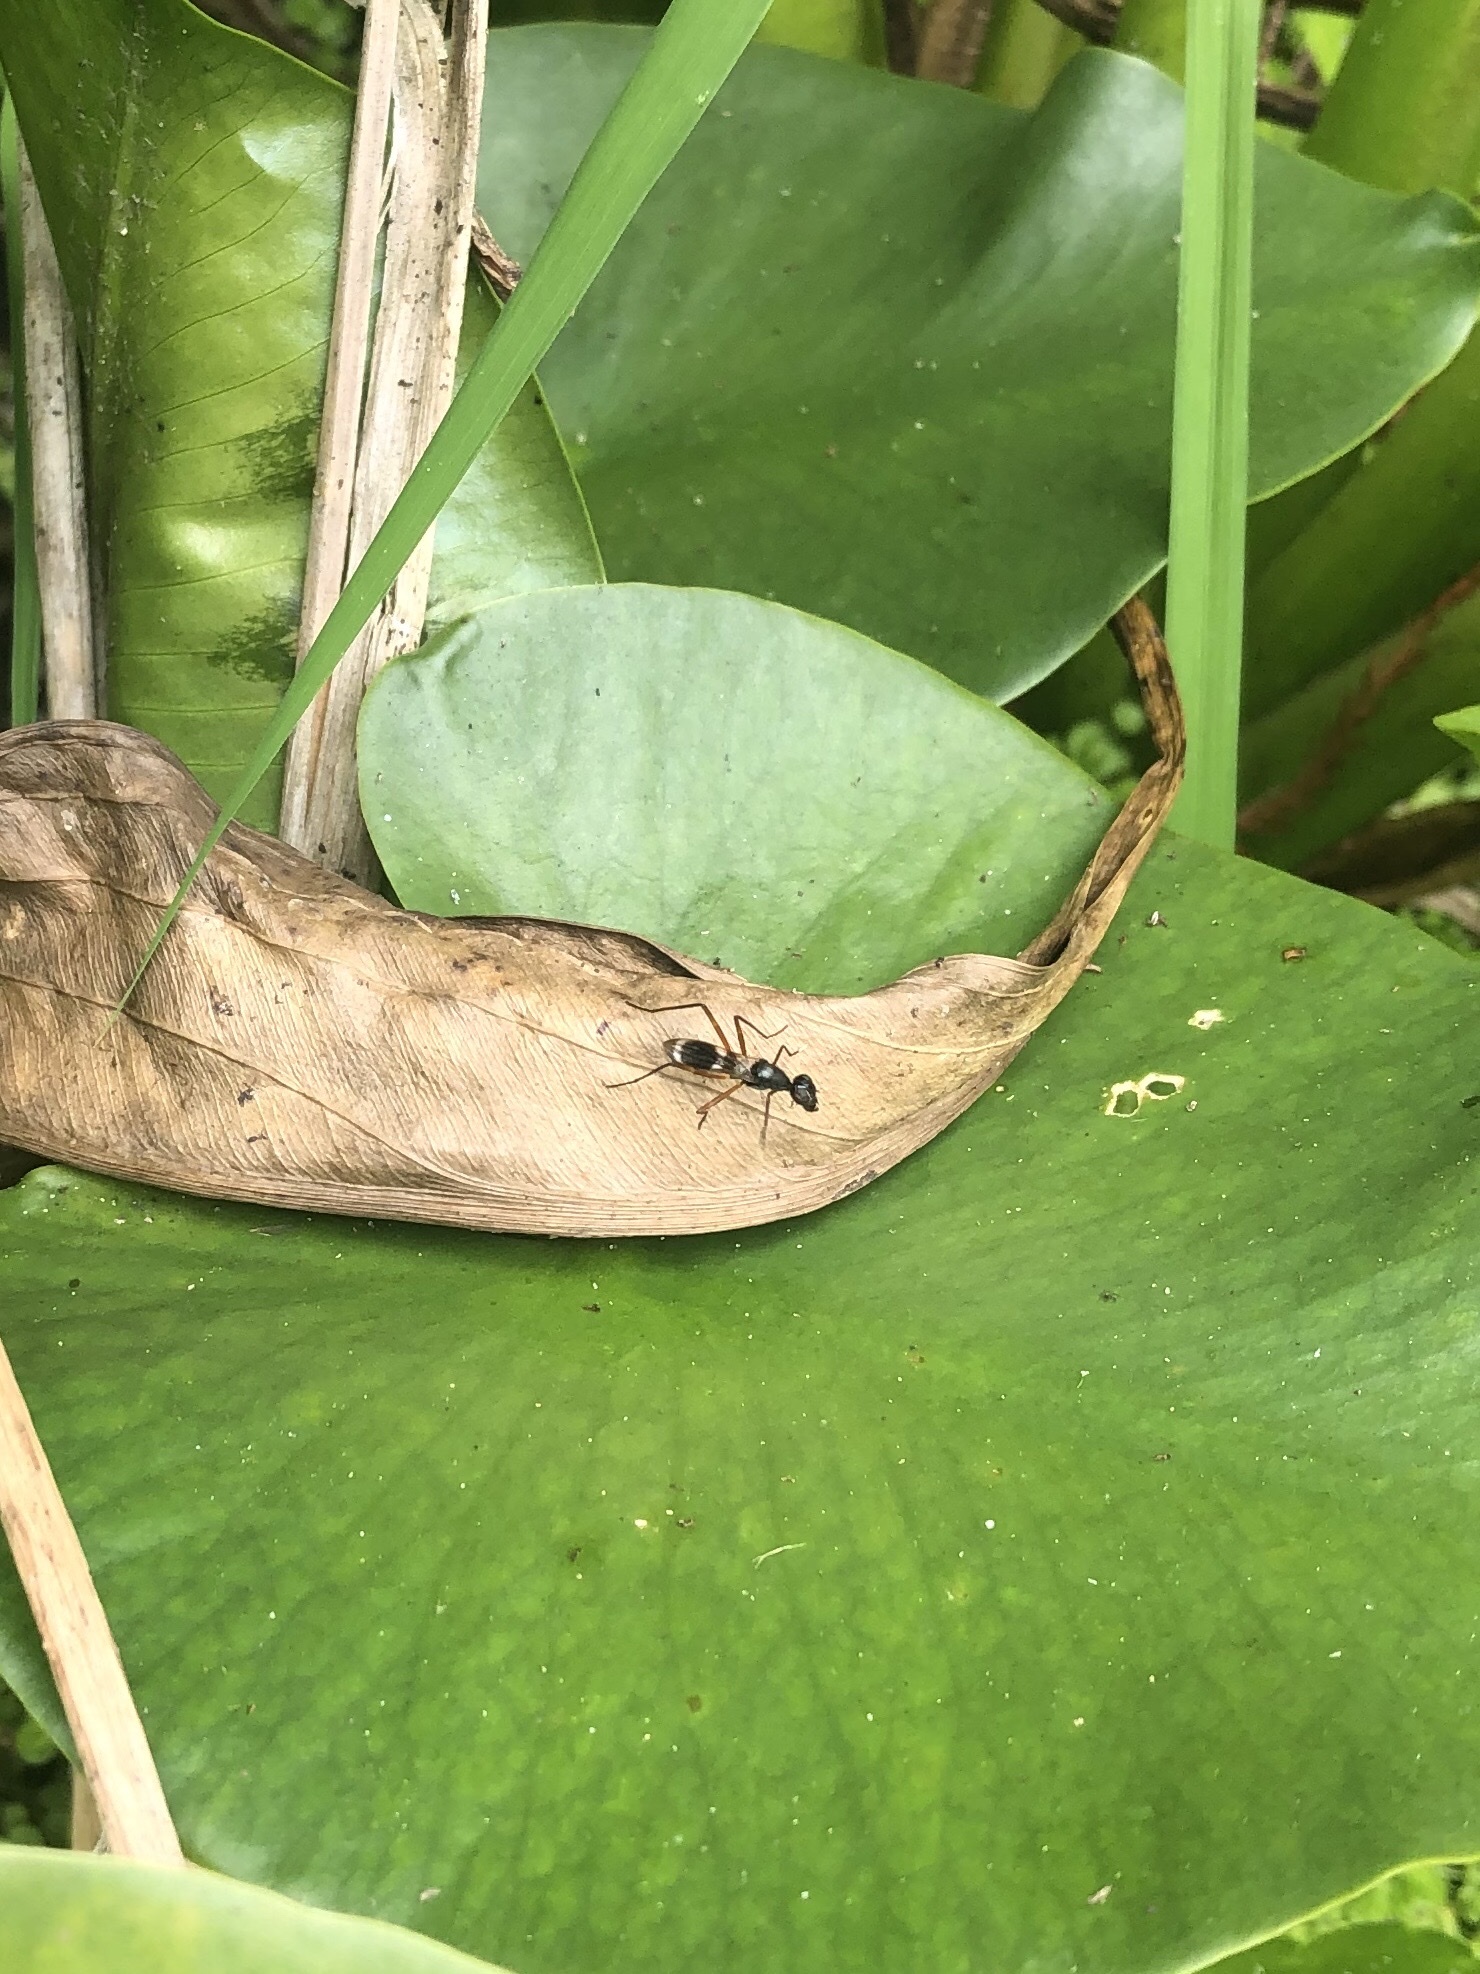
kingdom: Animalia
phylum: Arthropoda
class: Insecta
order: Diptera
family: Micropezidae
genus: Taeniaptera
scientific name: Taeniaptera trivittata
